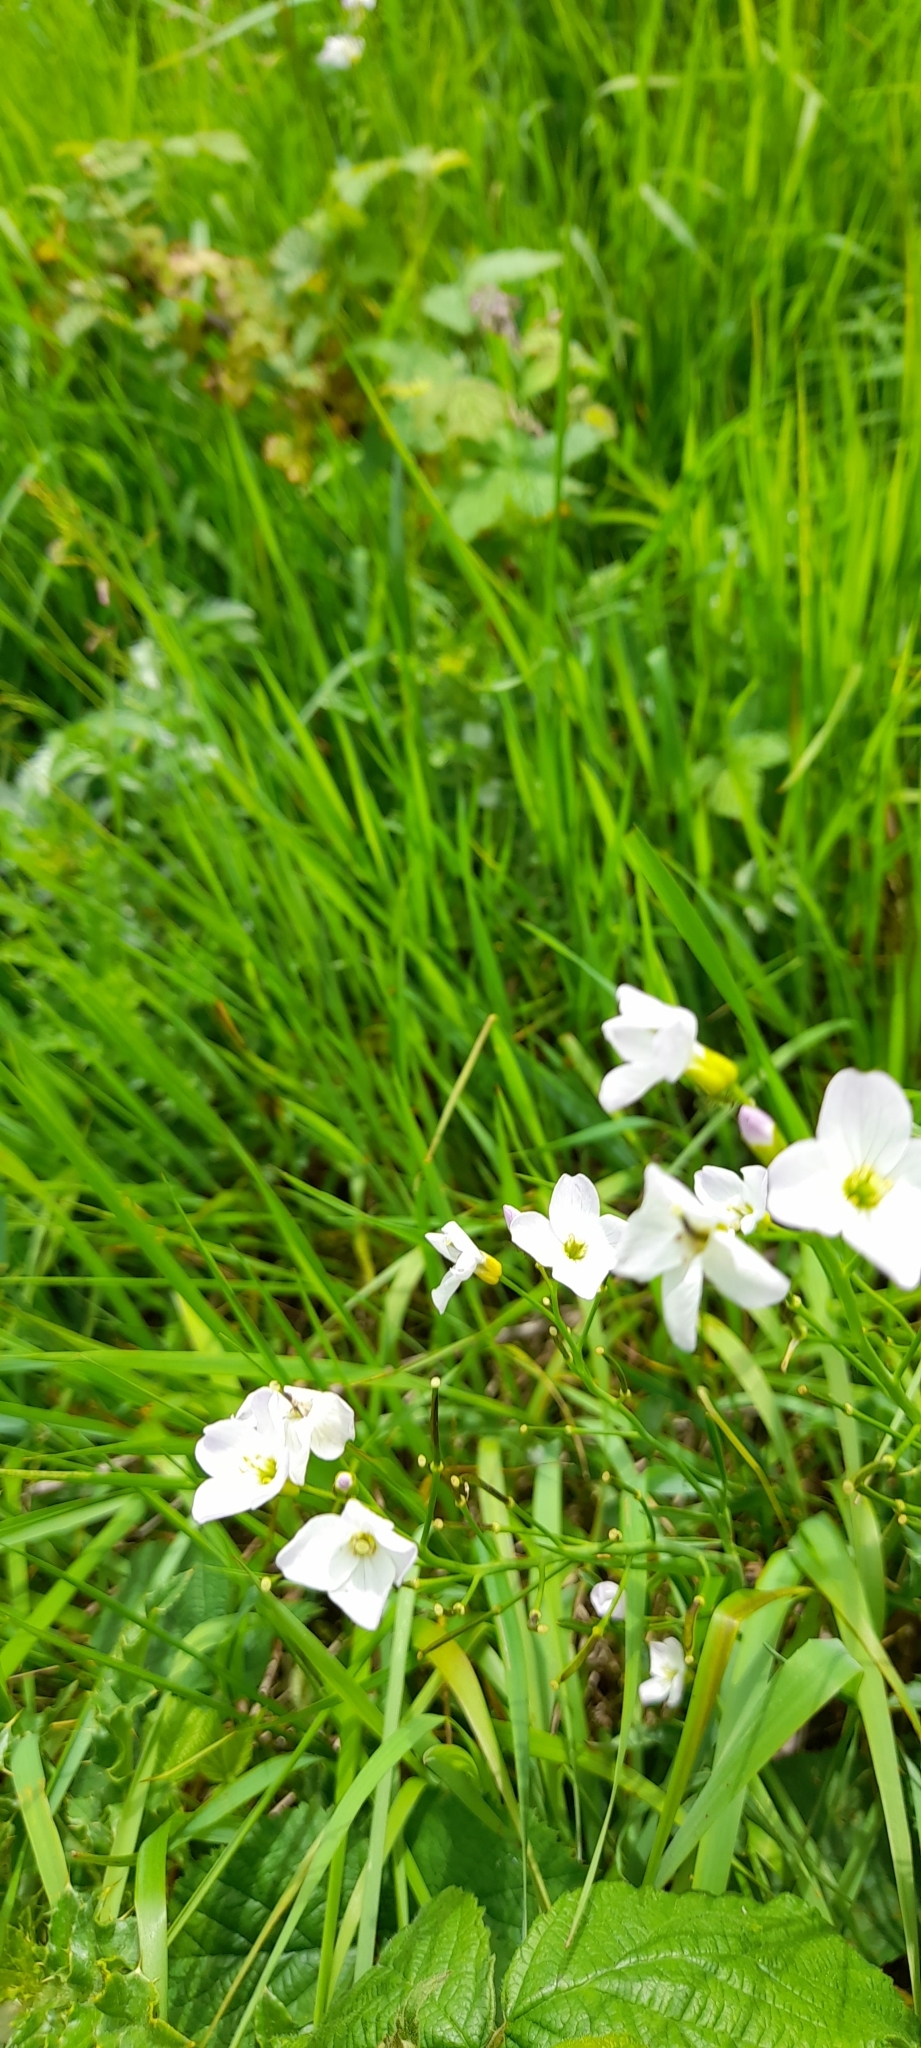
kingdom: Plantae
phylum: Tracheophyta
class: Magnoliopsida
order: Brassicales
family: Brassicaceae
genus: Cardamine
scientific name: Cardamine pratensis
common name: Cuckoo flower
